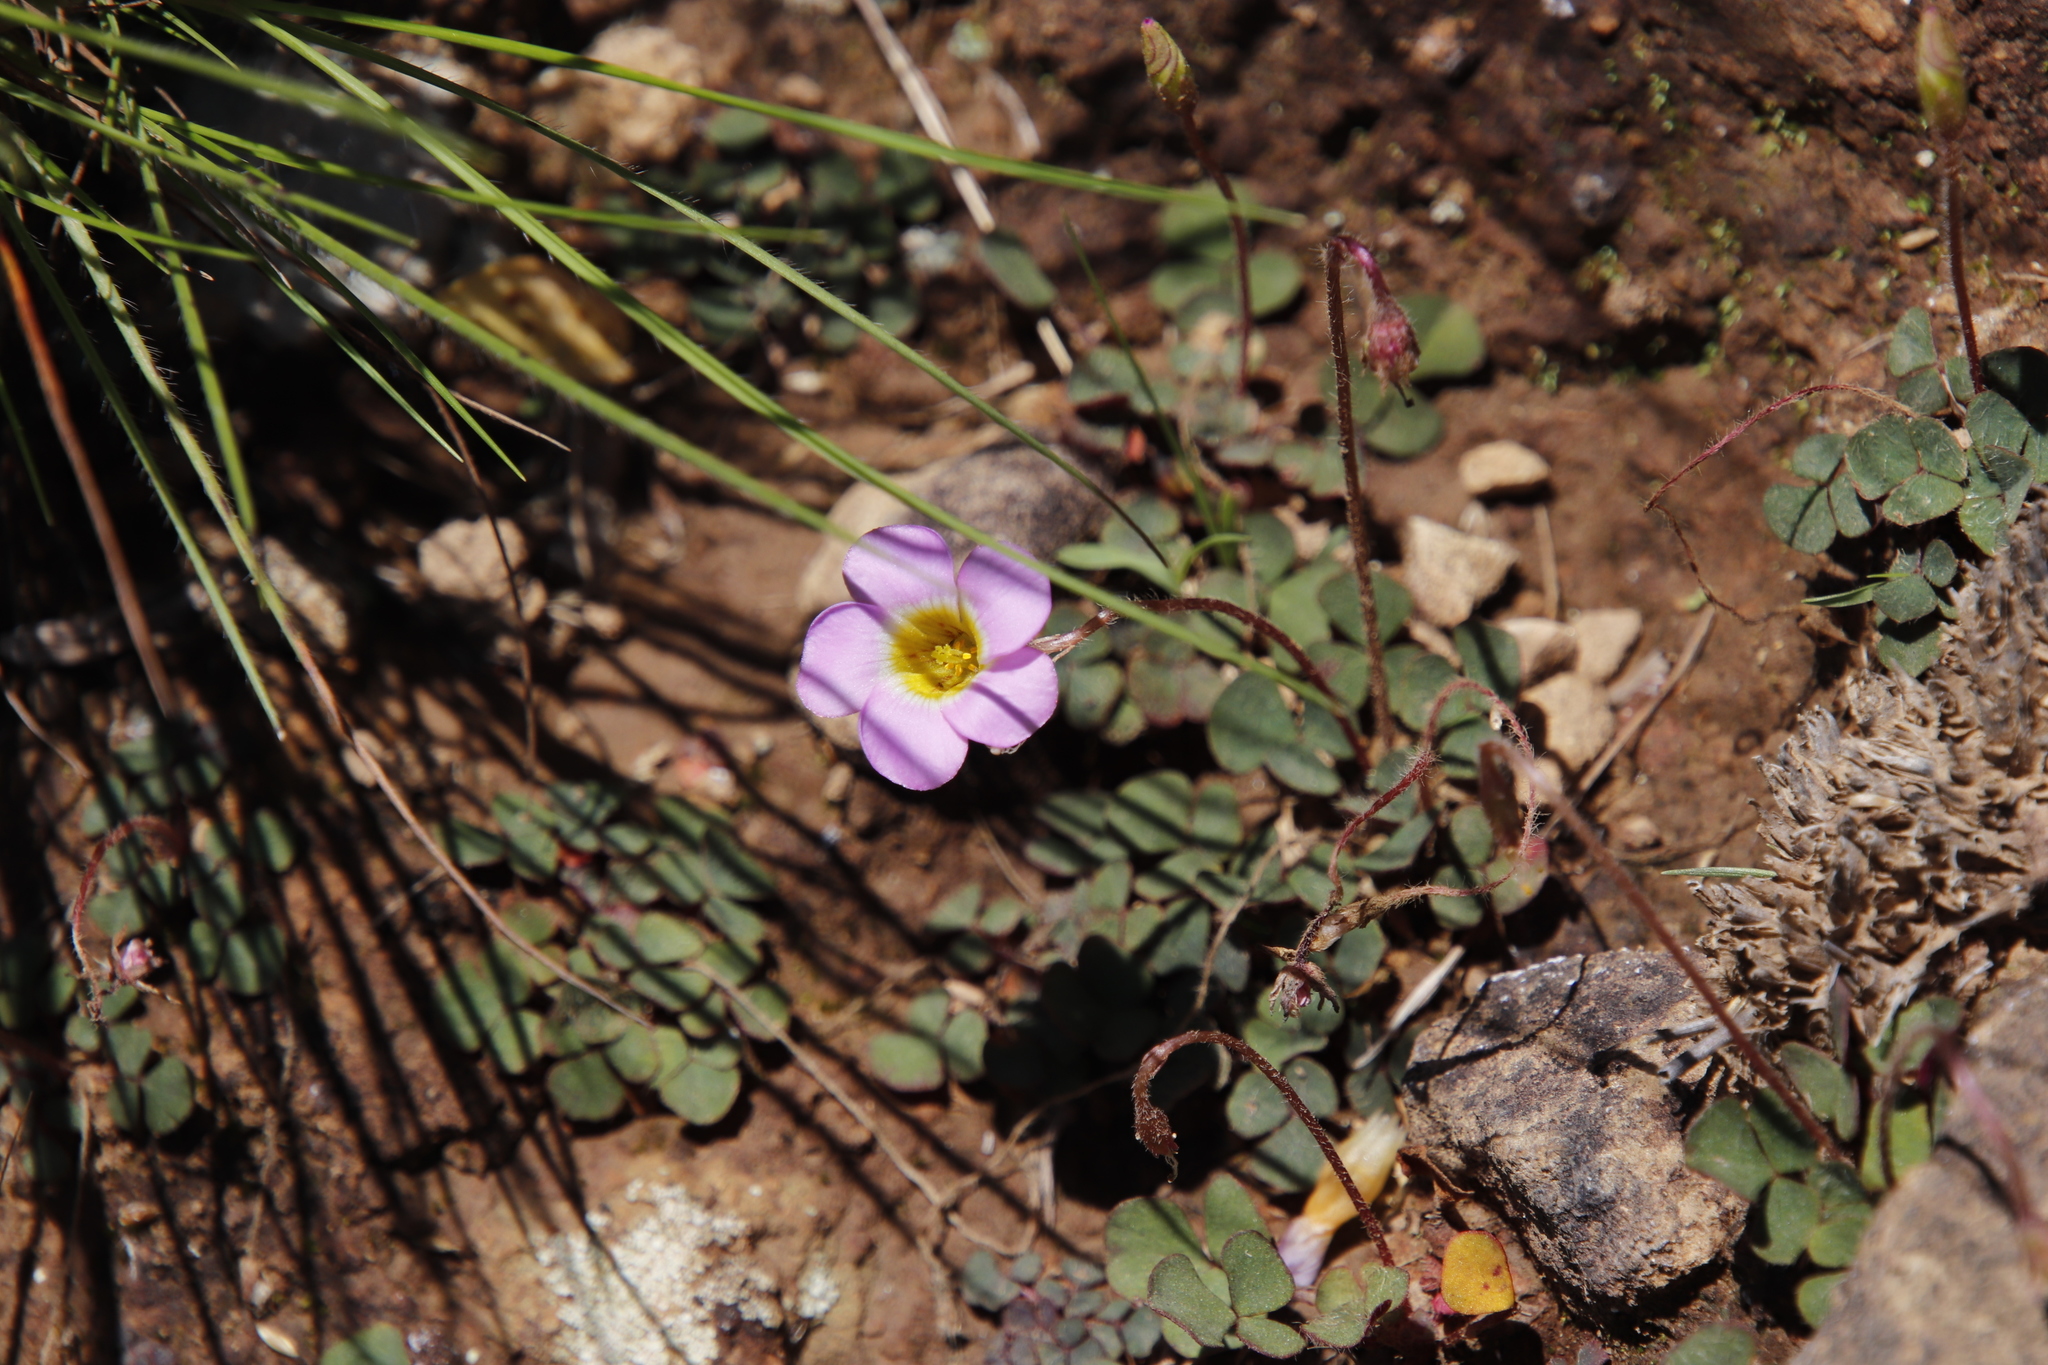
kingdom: Plantae
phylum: Tracheophyta
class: Magnoliopsida
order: Oxalidales
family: Oxalidaceae
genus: Oxalis
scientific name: Oxalis obliquifolia
